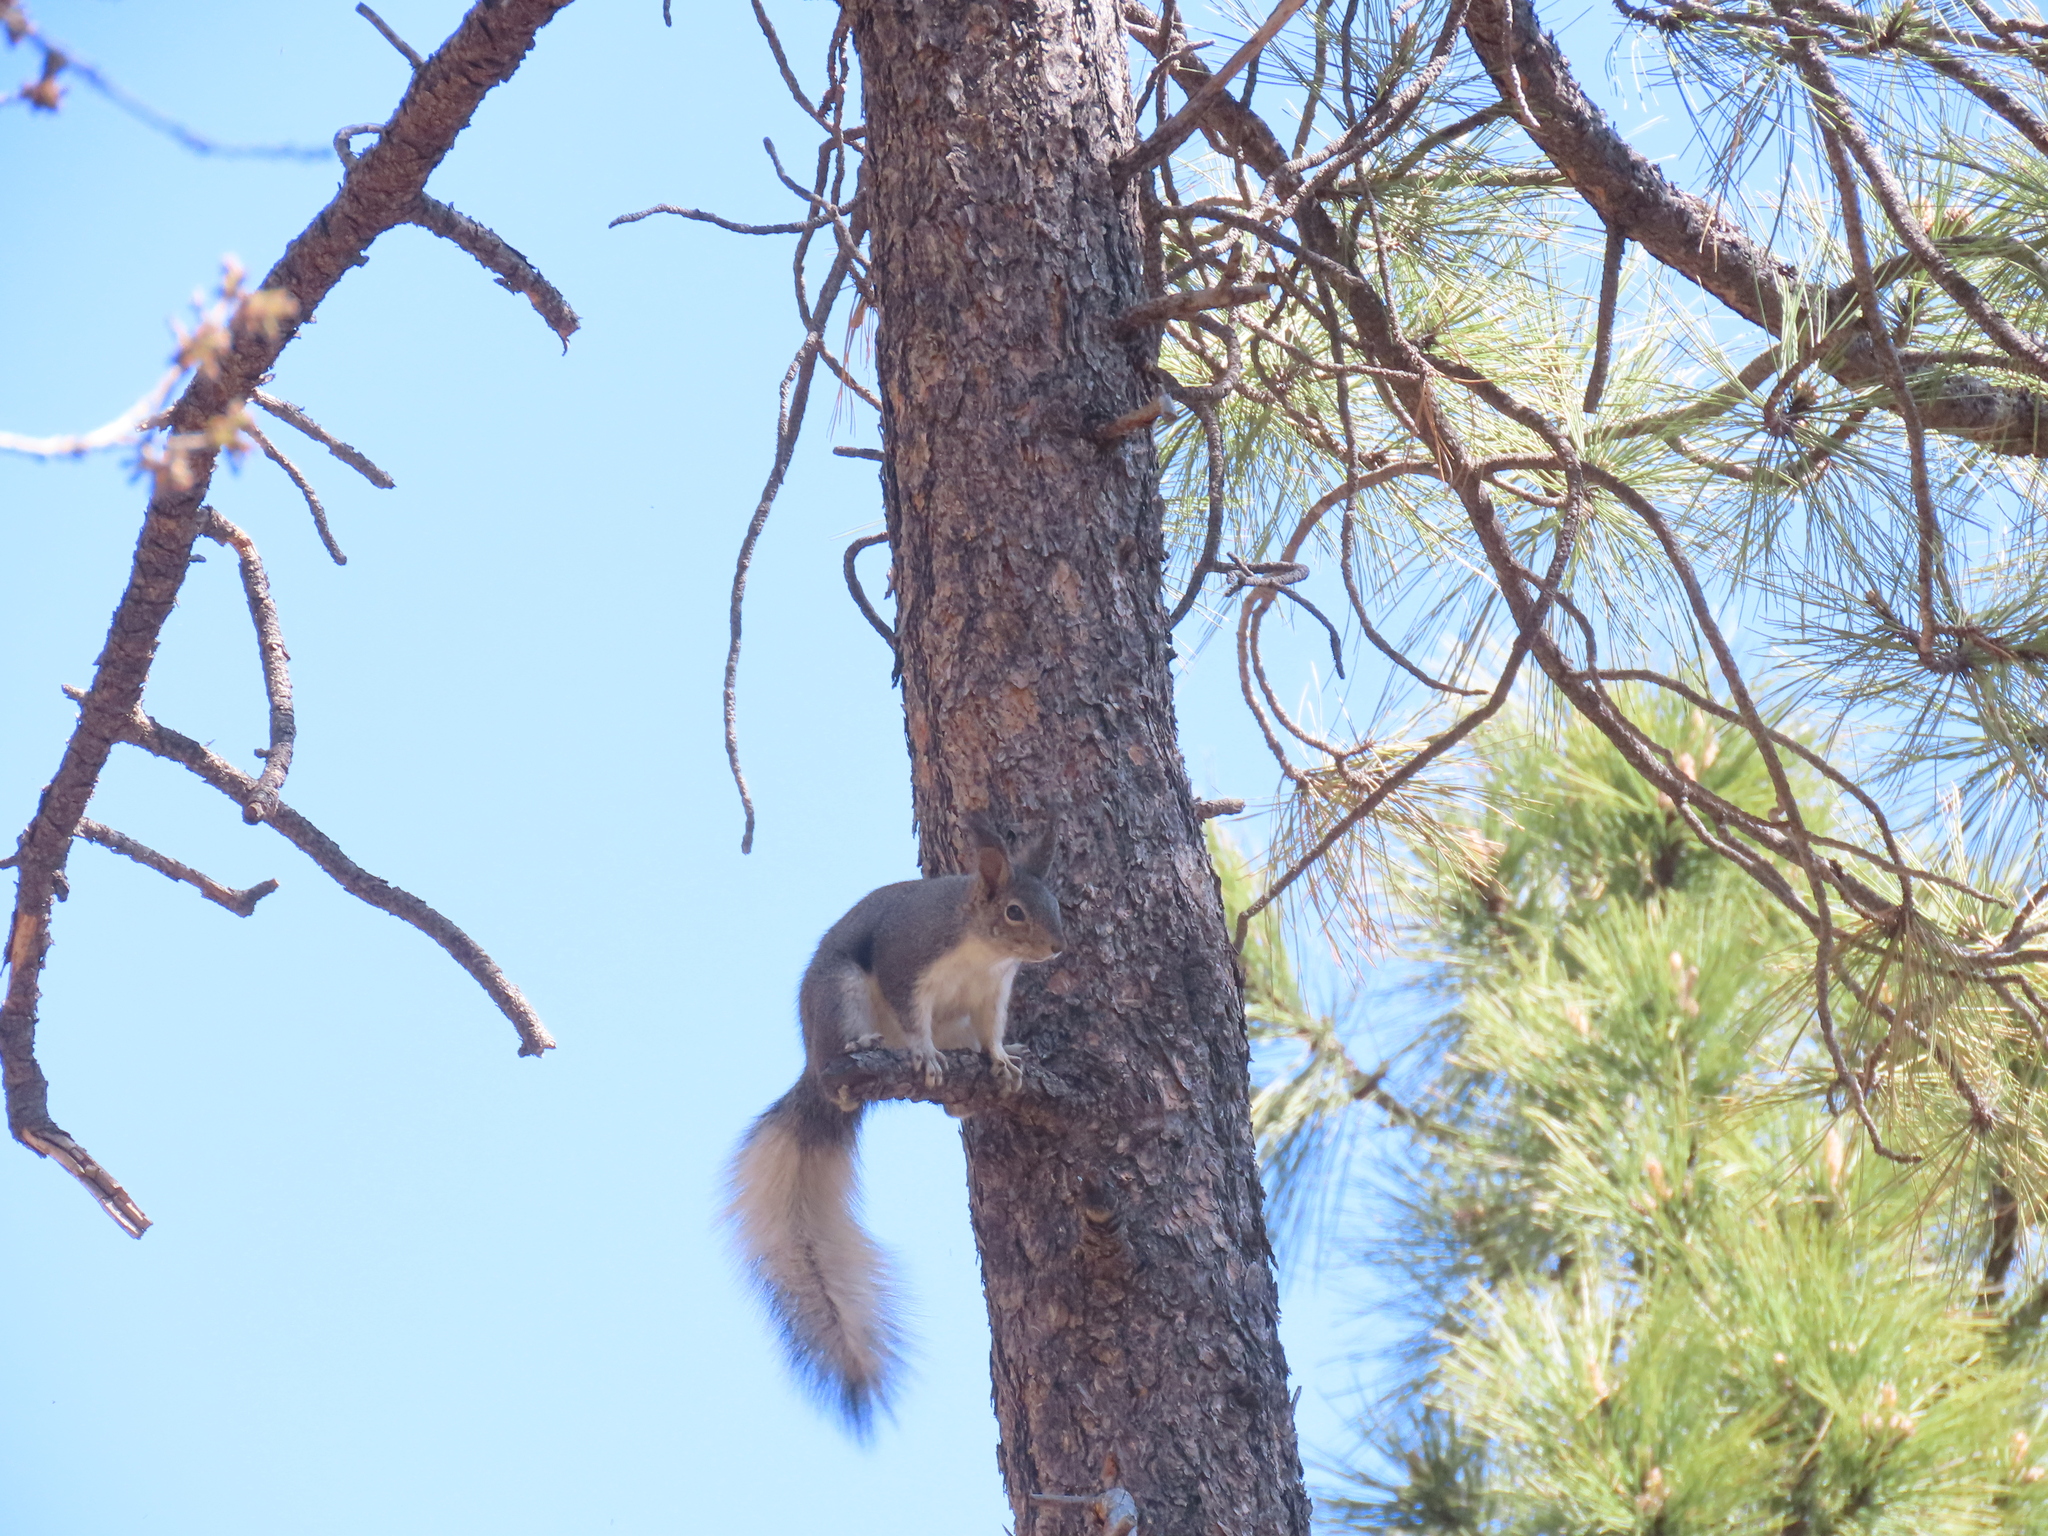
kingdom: Animalia
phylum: Chordata
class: Mammalia
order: Rodentia
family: Sciuridae
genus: Sciurus
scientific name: Sciurus aberti
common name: Abert's squirrel
